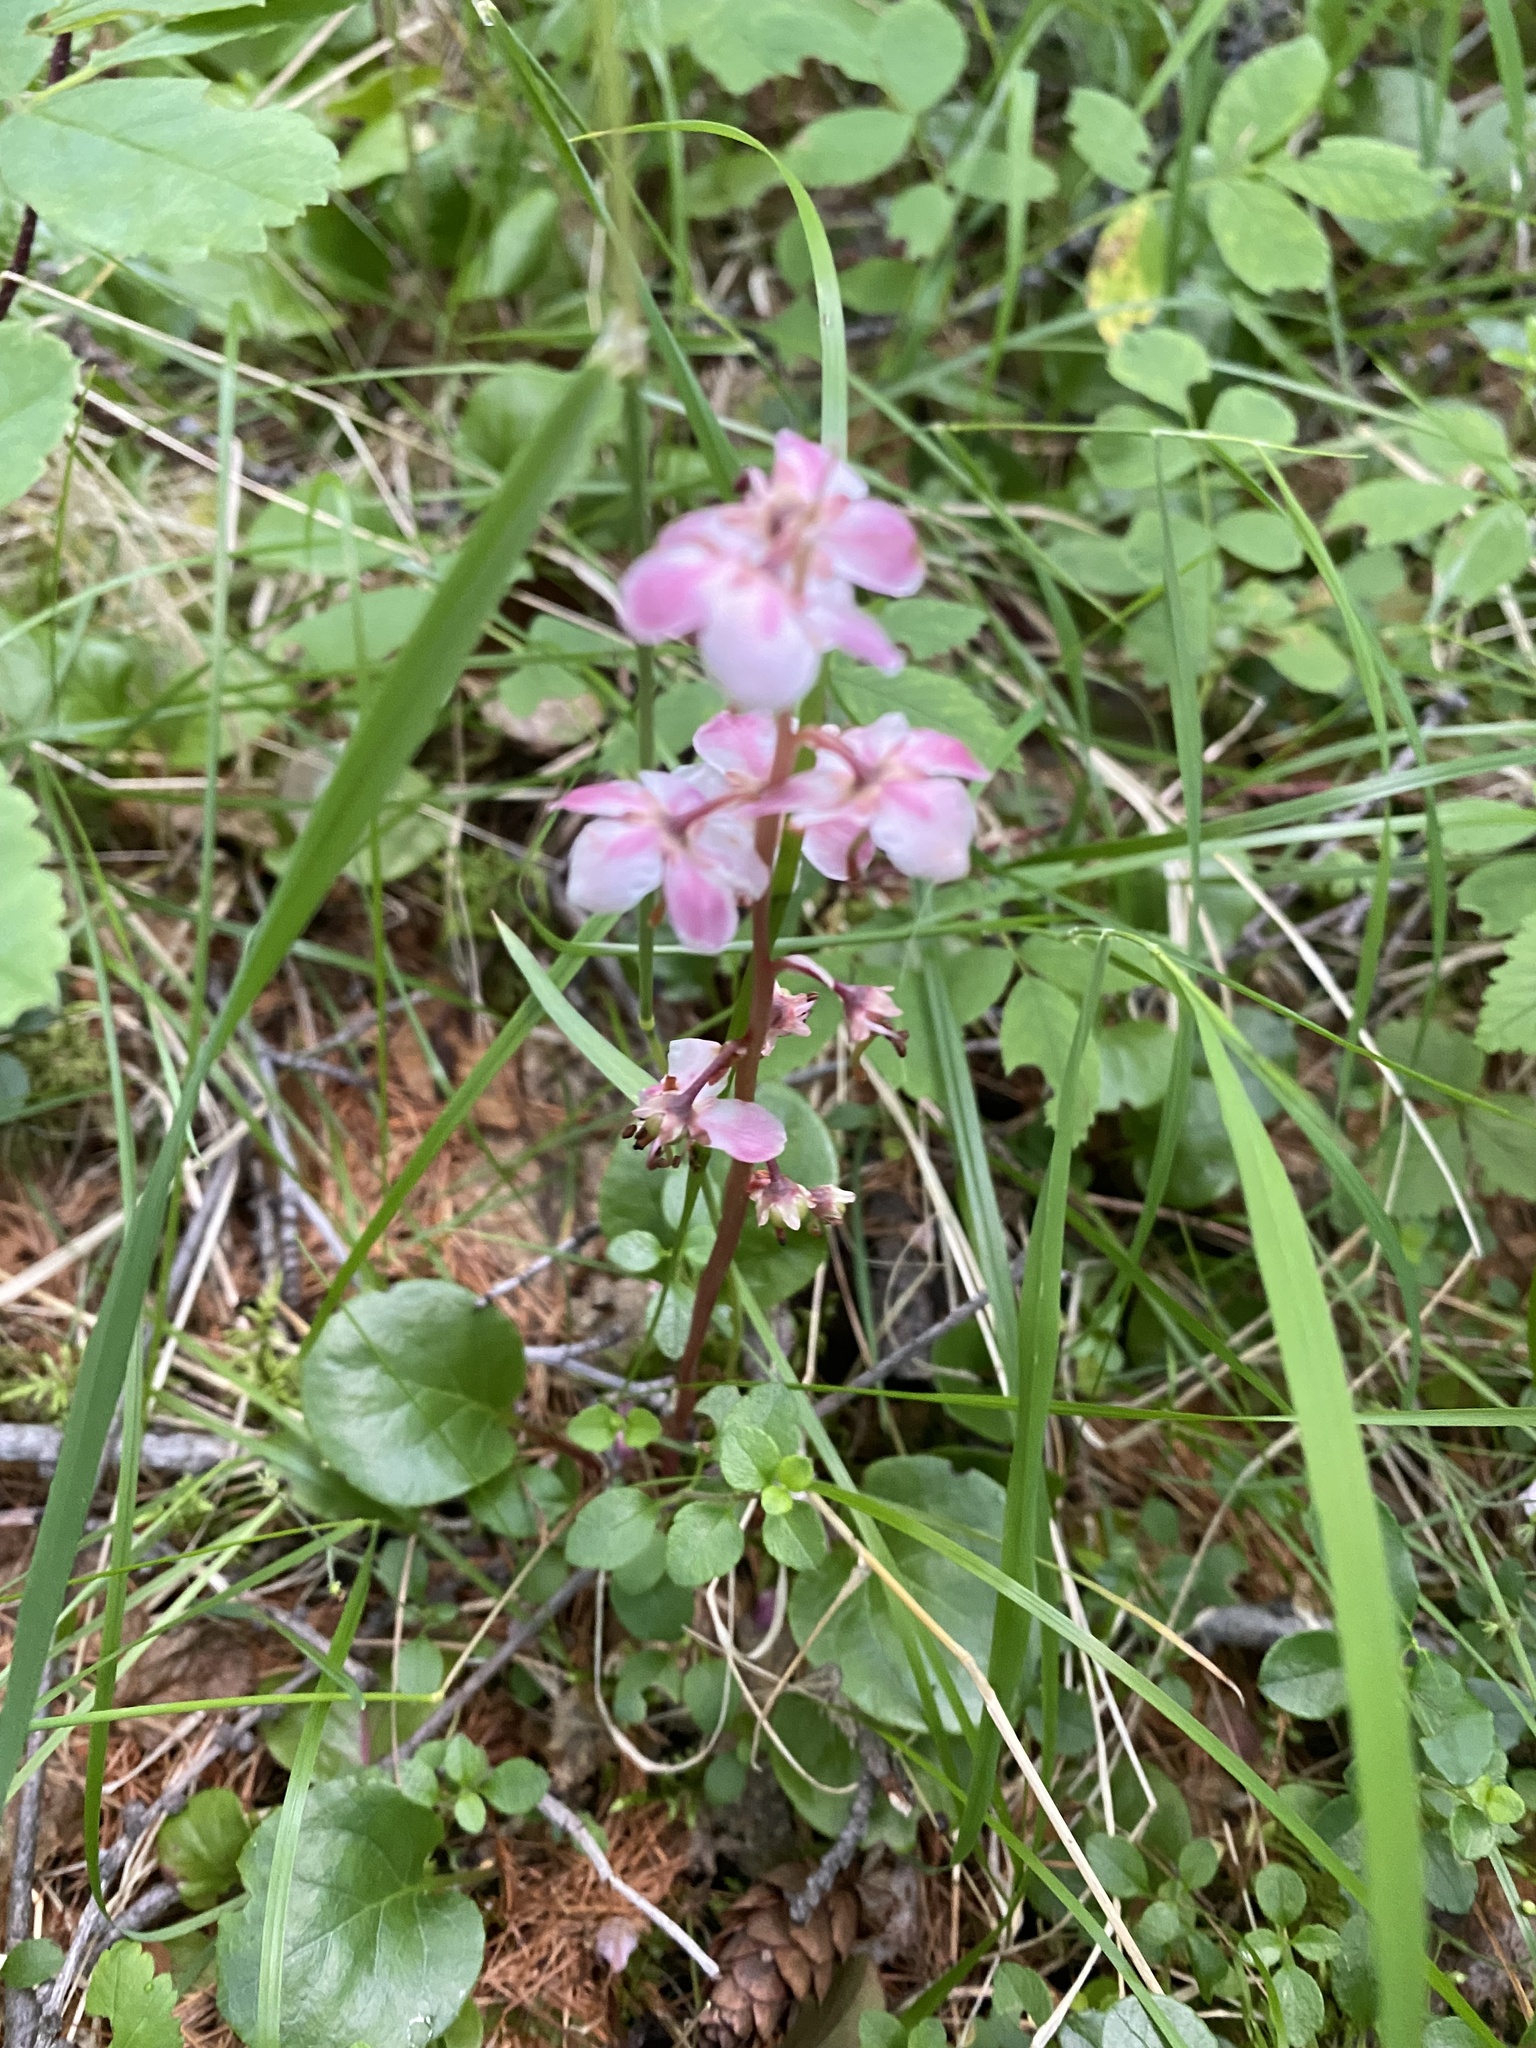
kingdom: Plantae
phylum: Tracheophyta
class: Magnoliopsida
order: Ericales
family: Ericaceae
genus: Pyrola
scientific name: Pyrola asarifolia
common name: Bog wintergreen
